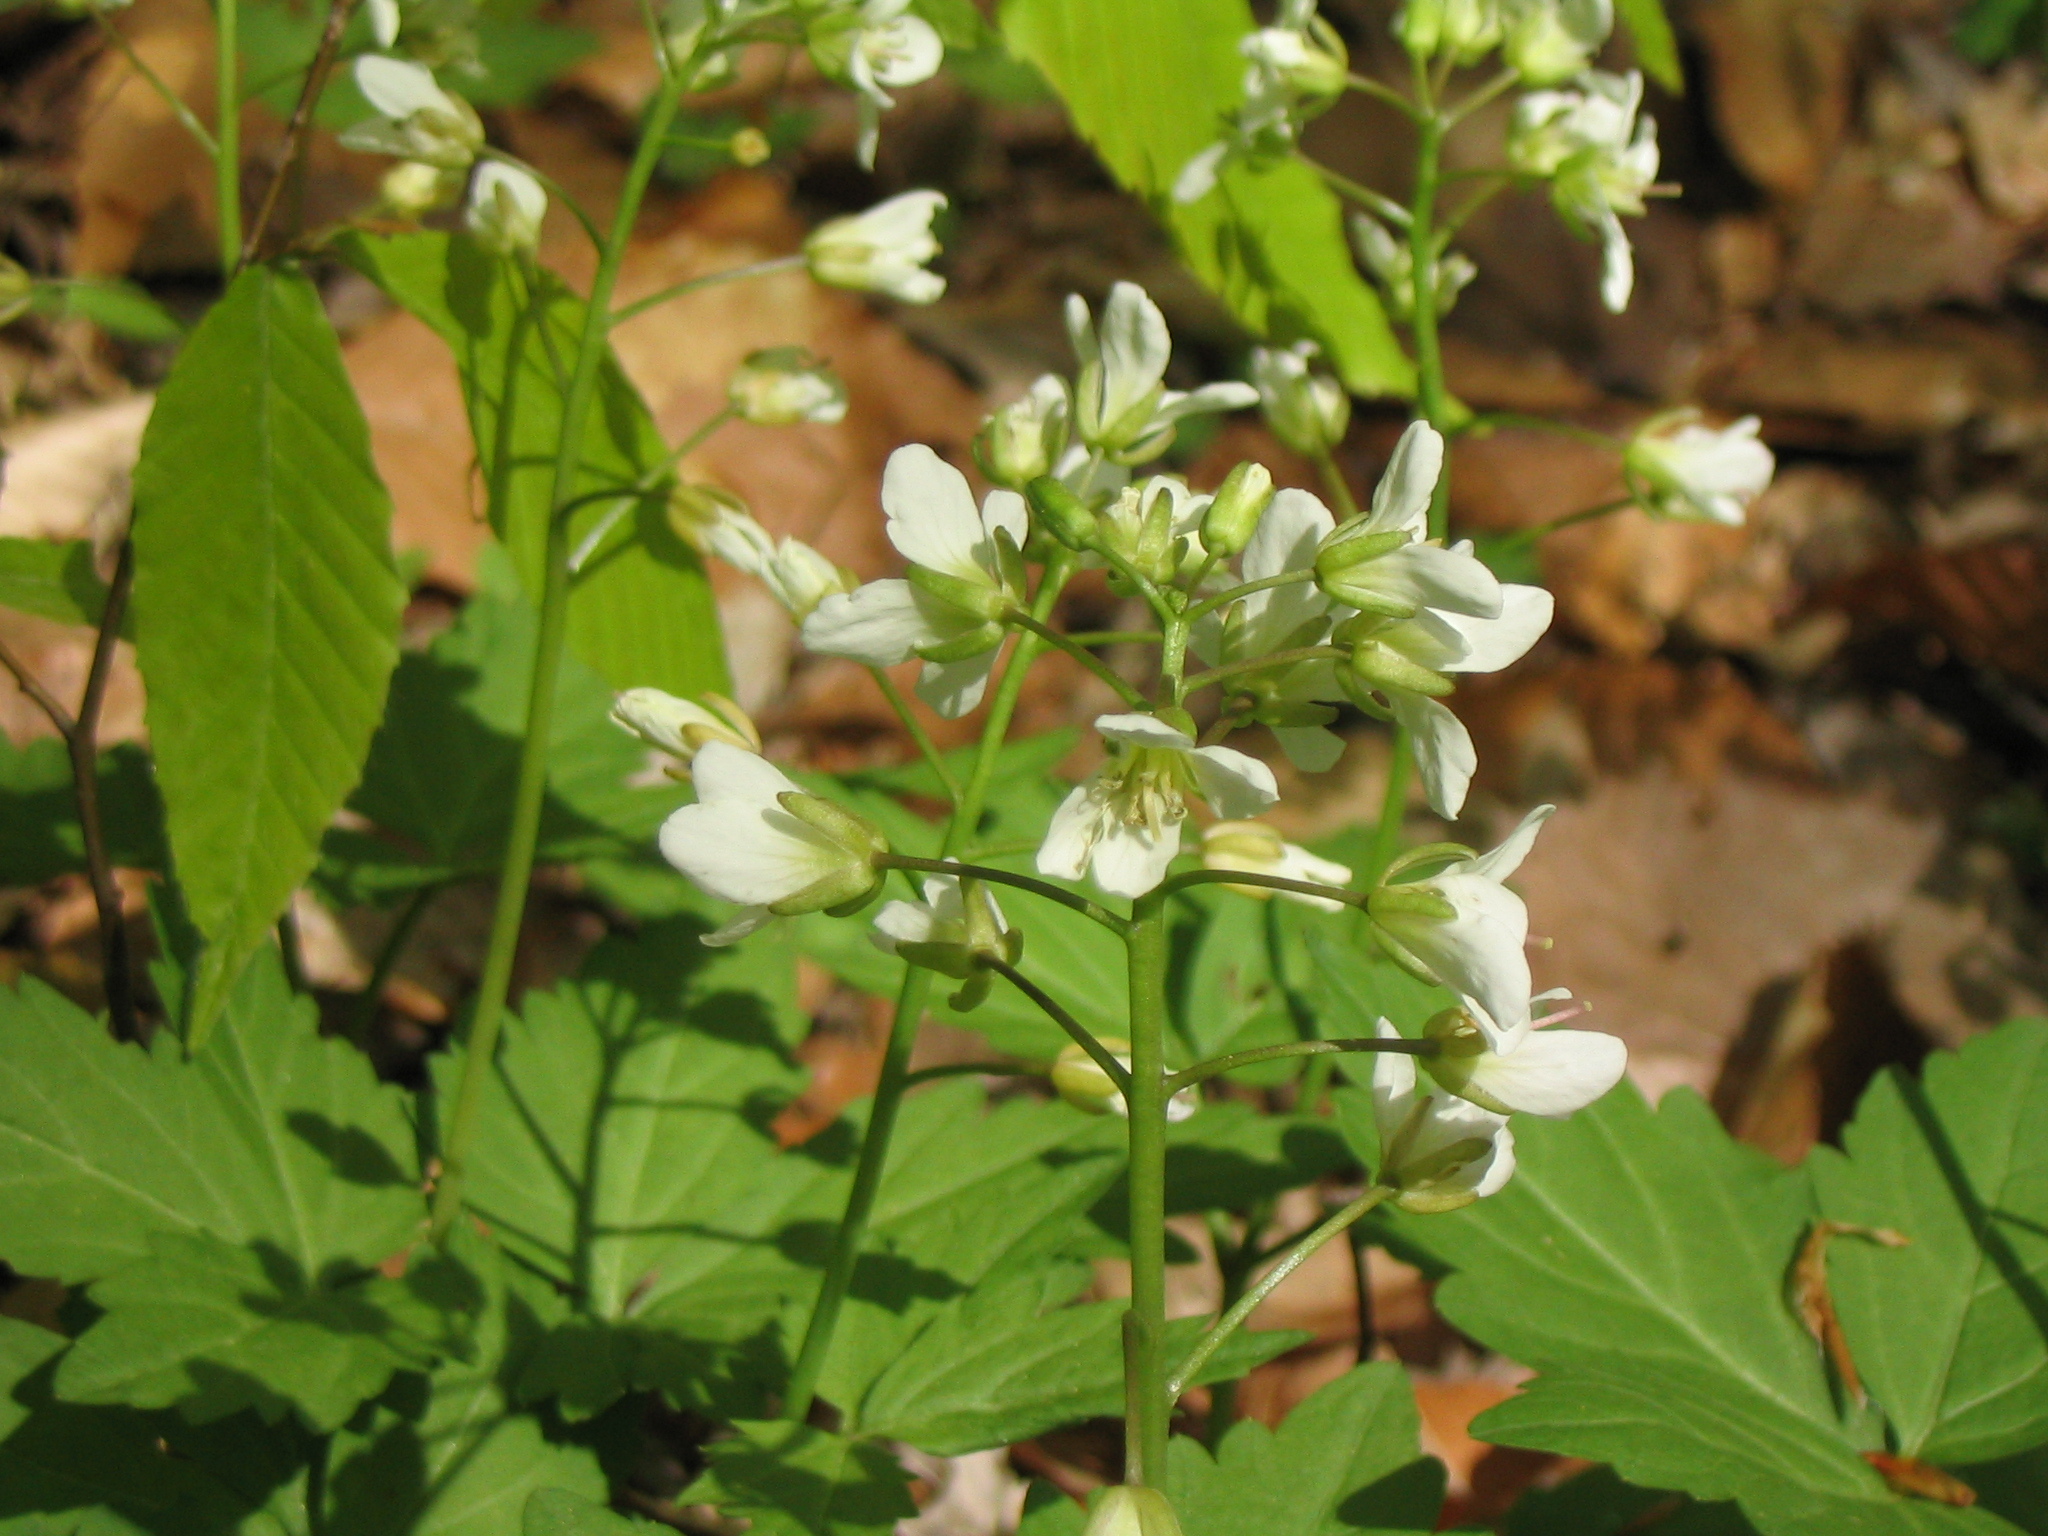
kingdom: Plantae
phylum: Tracheophyta
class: Magnoliopsida
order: Brassicales
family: Brassicaceae
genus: Cardamine
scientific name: Cardamine diphylla
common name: Broad-leaved toothwort
